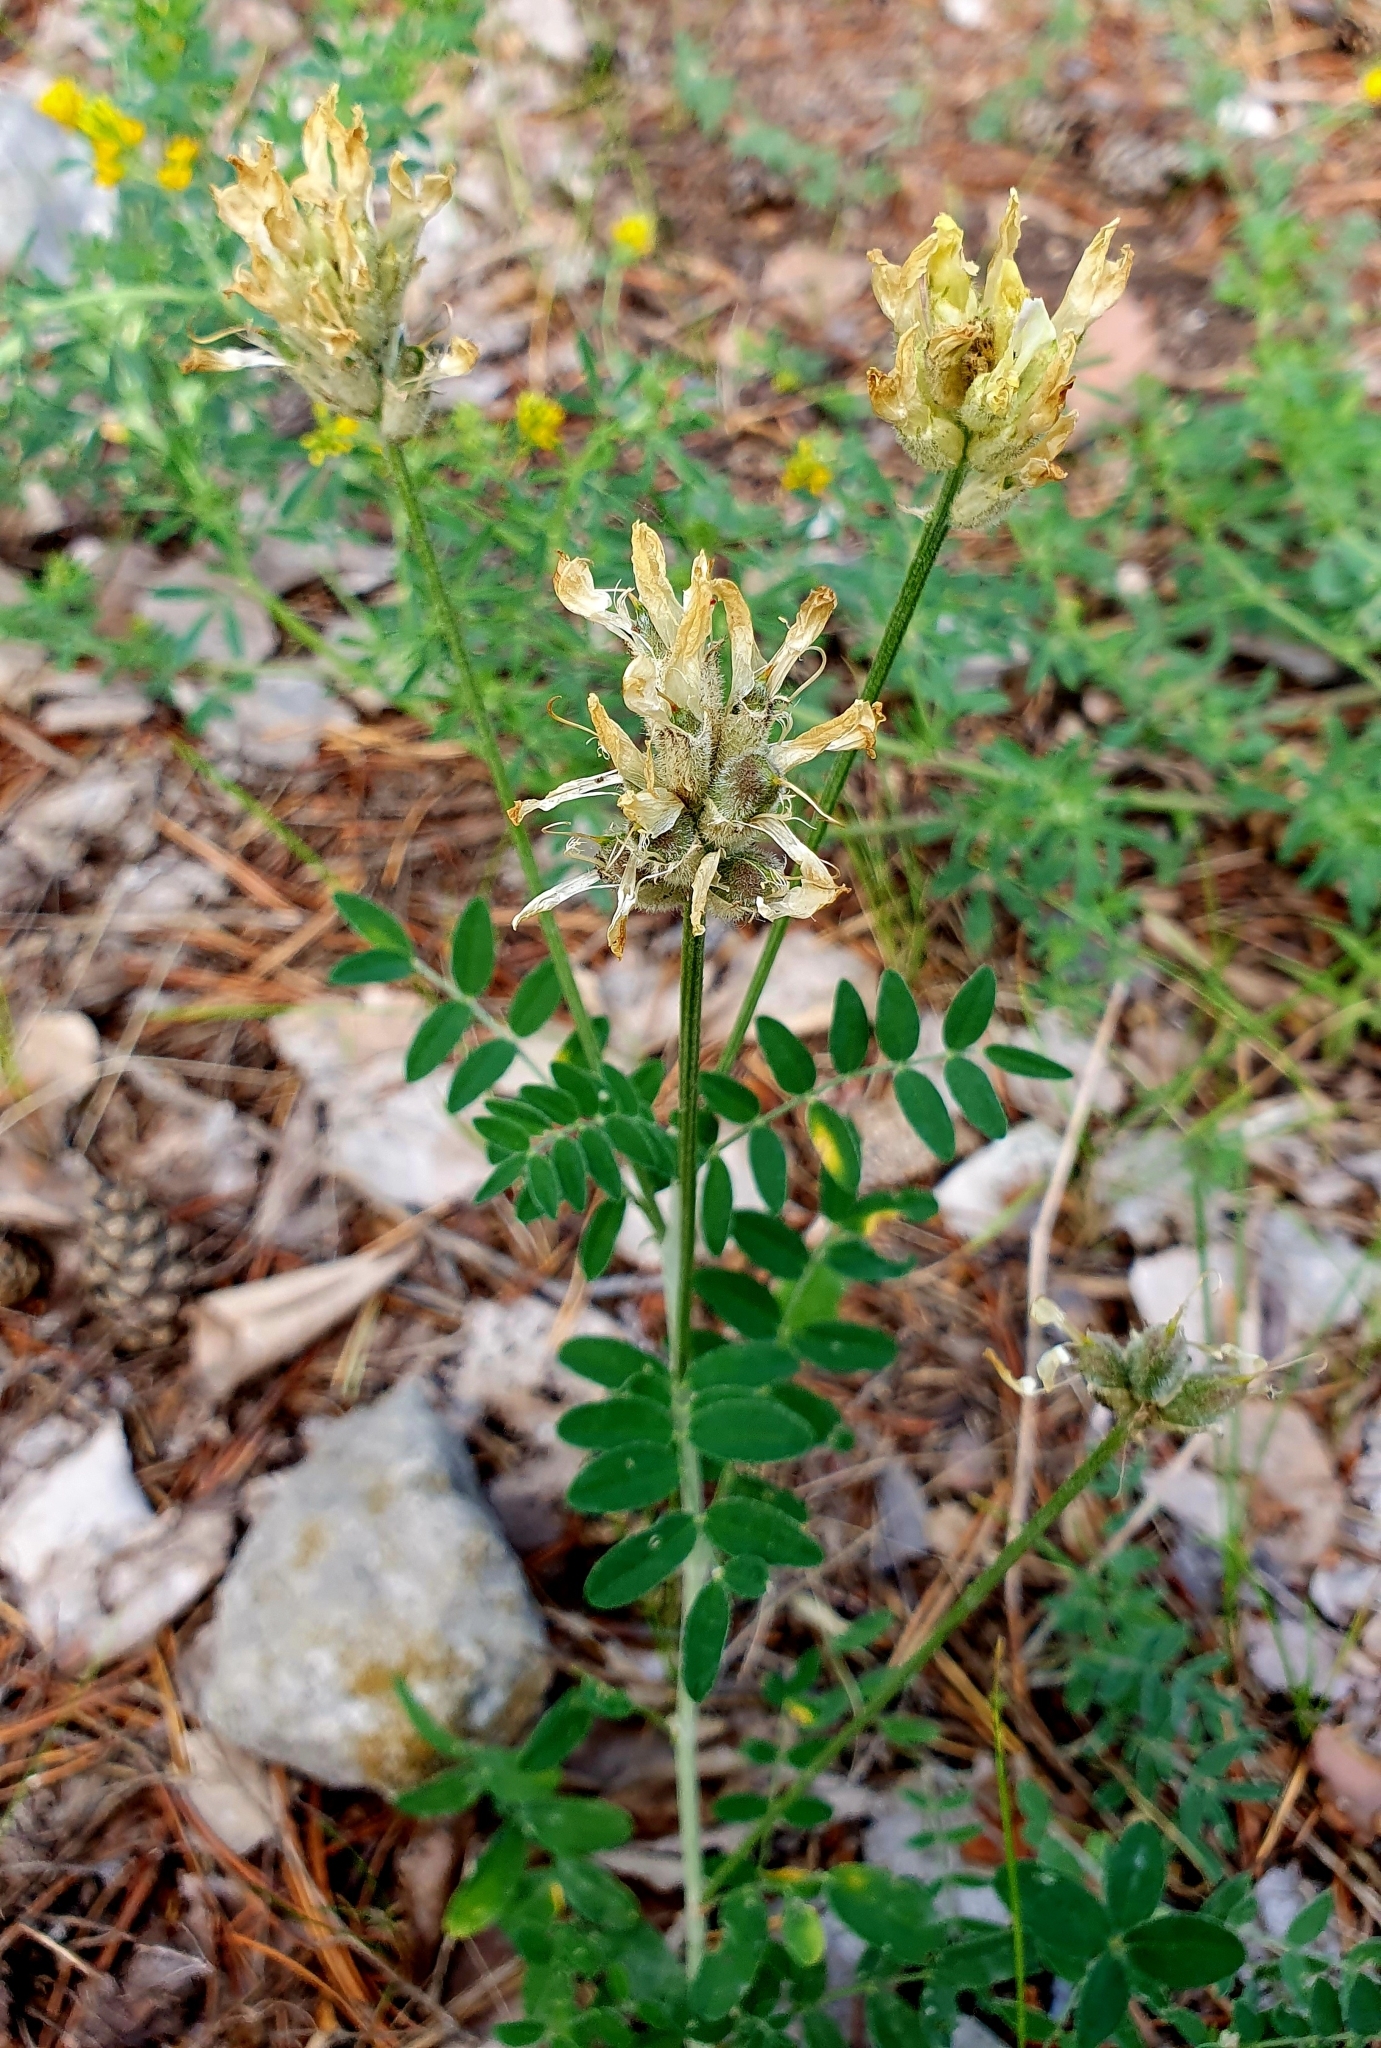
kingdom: Plantae
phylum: Tracheophyta
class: Magnoliopsida
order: Fabales
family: Fabaceae
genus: Astragalus
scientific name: Astragalus zingeri
